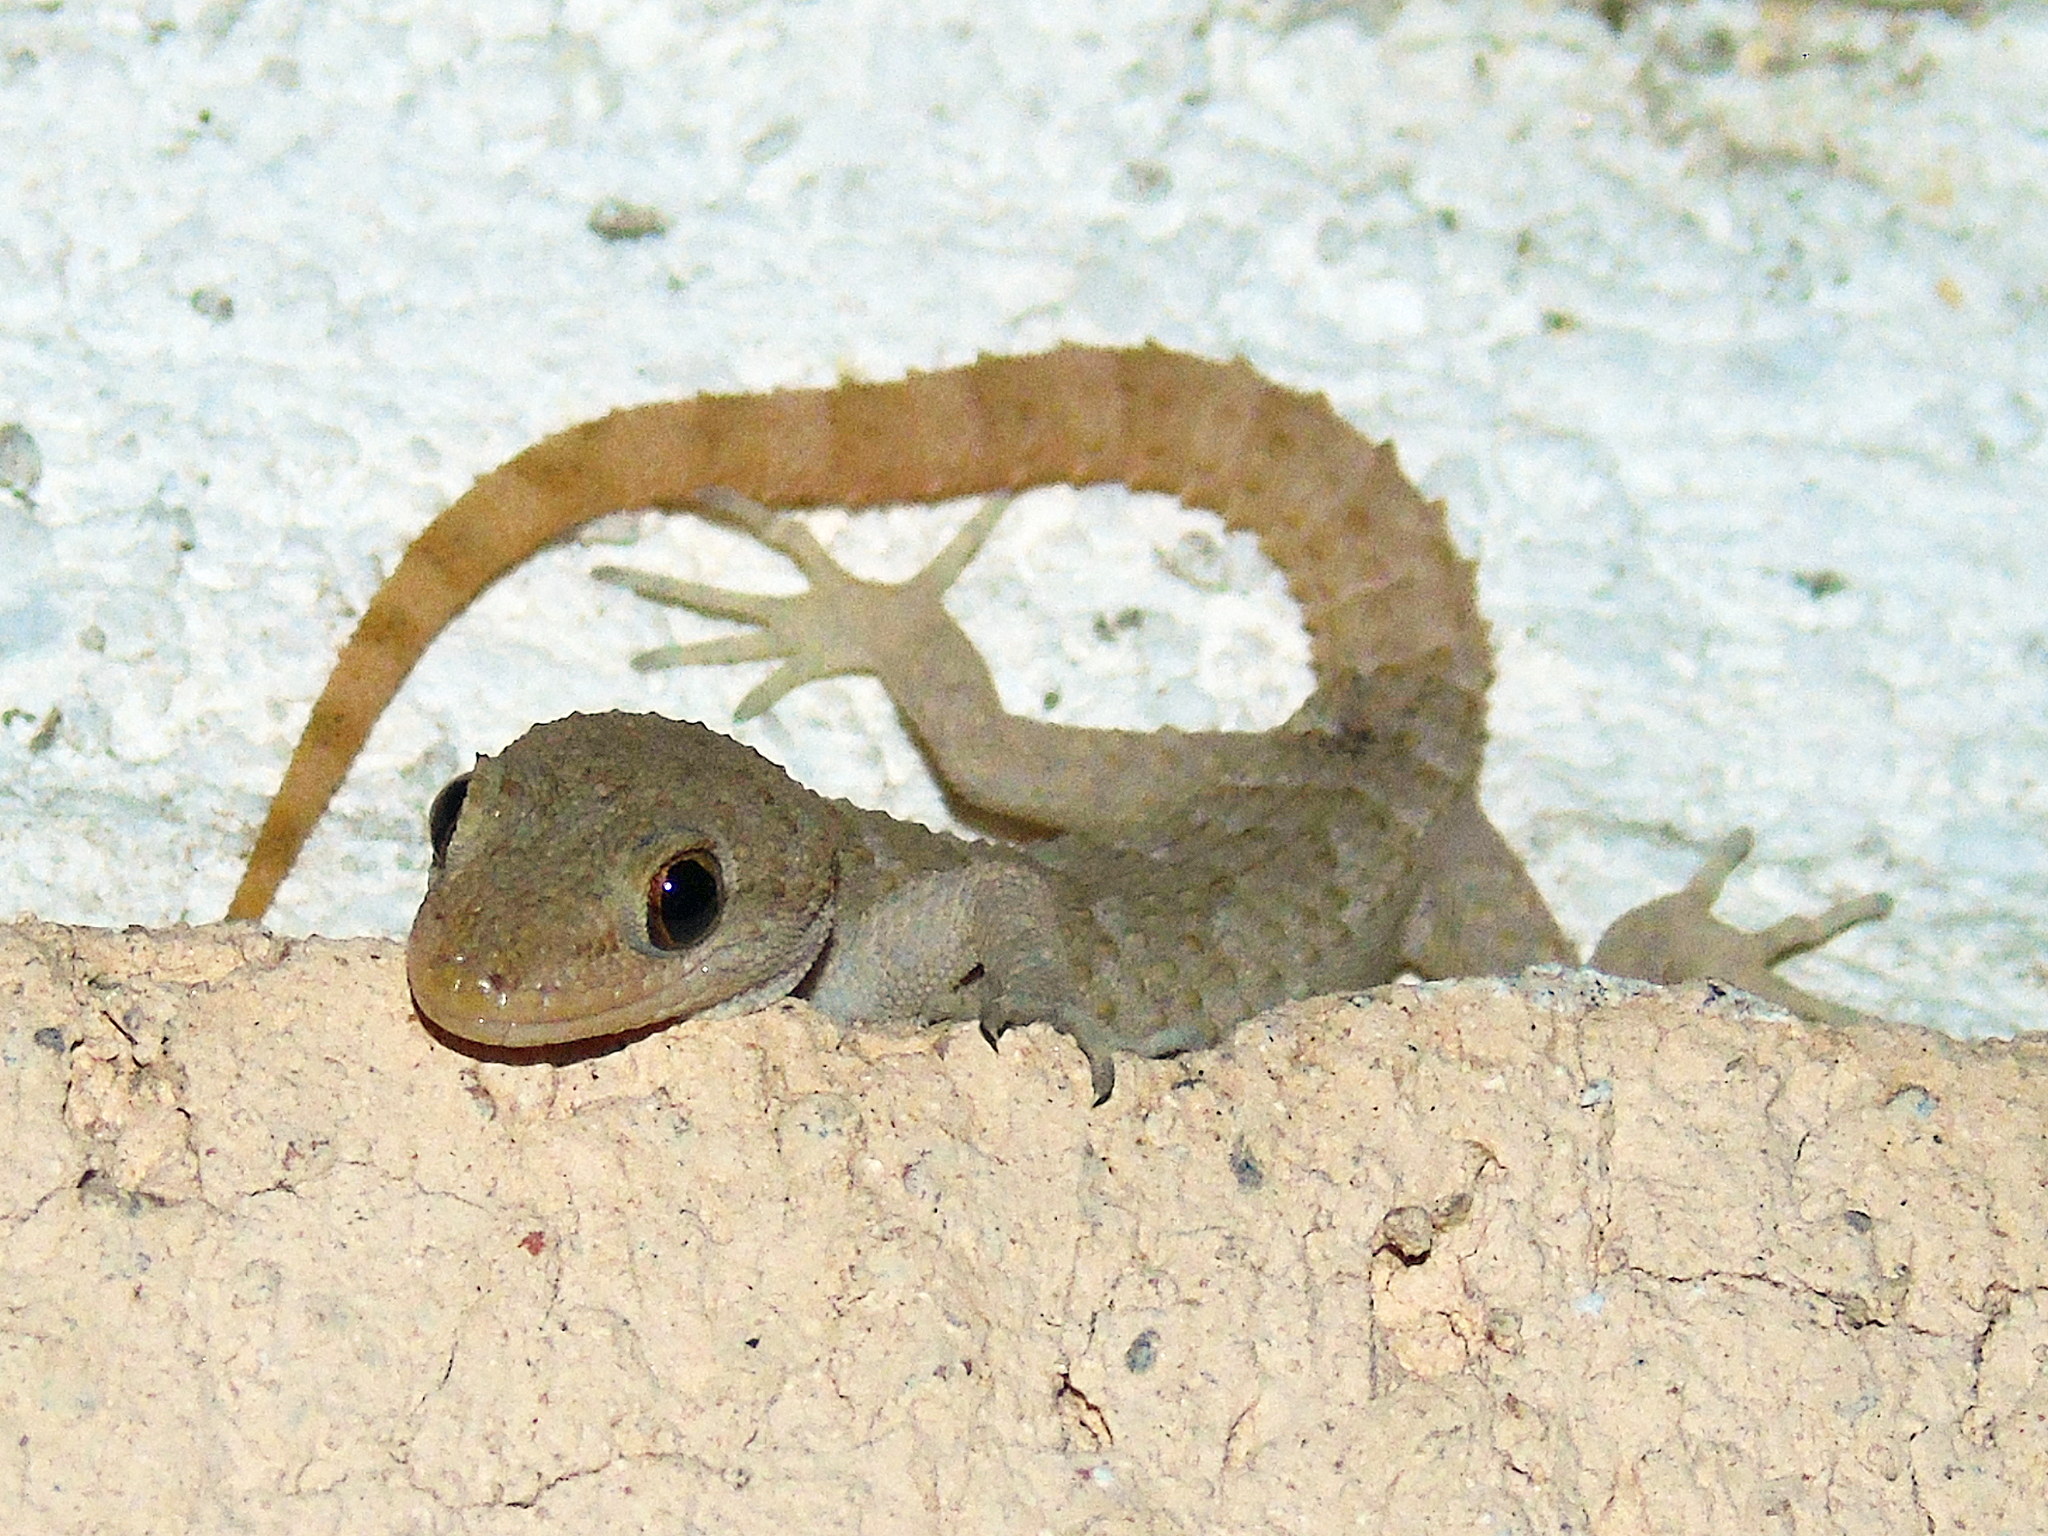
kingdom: Animalia
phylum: Chordata
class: Squamata
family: Gekkonidae
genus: Mediodactylus
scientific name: Mediodactylus kotschyi
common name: Kotschy's gecko
